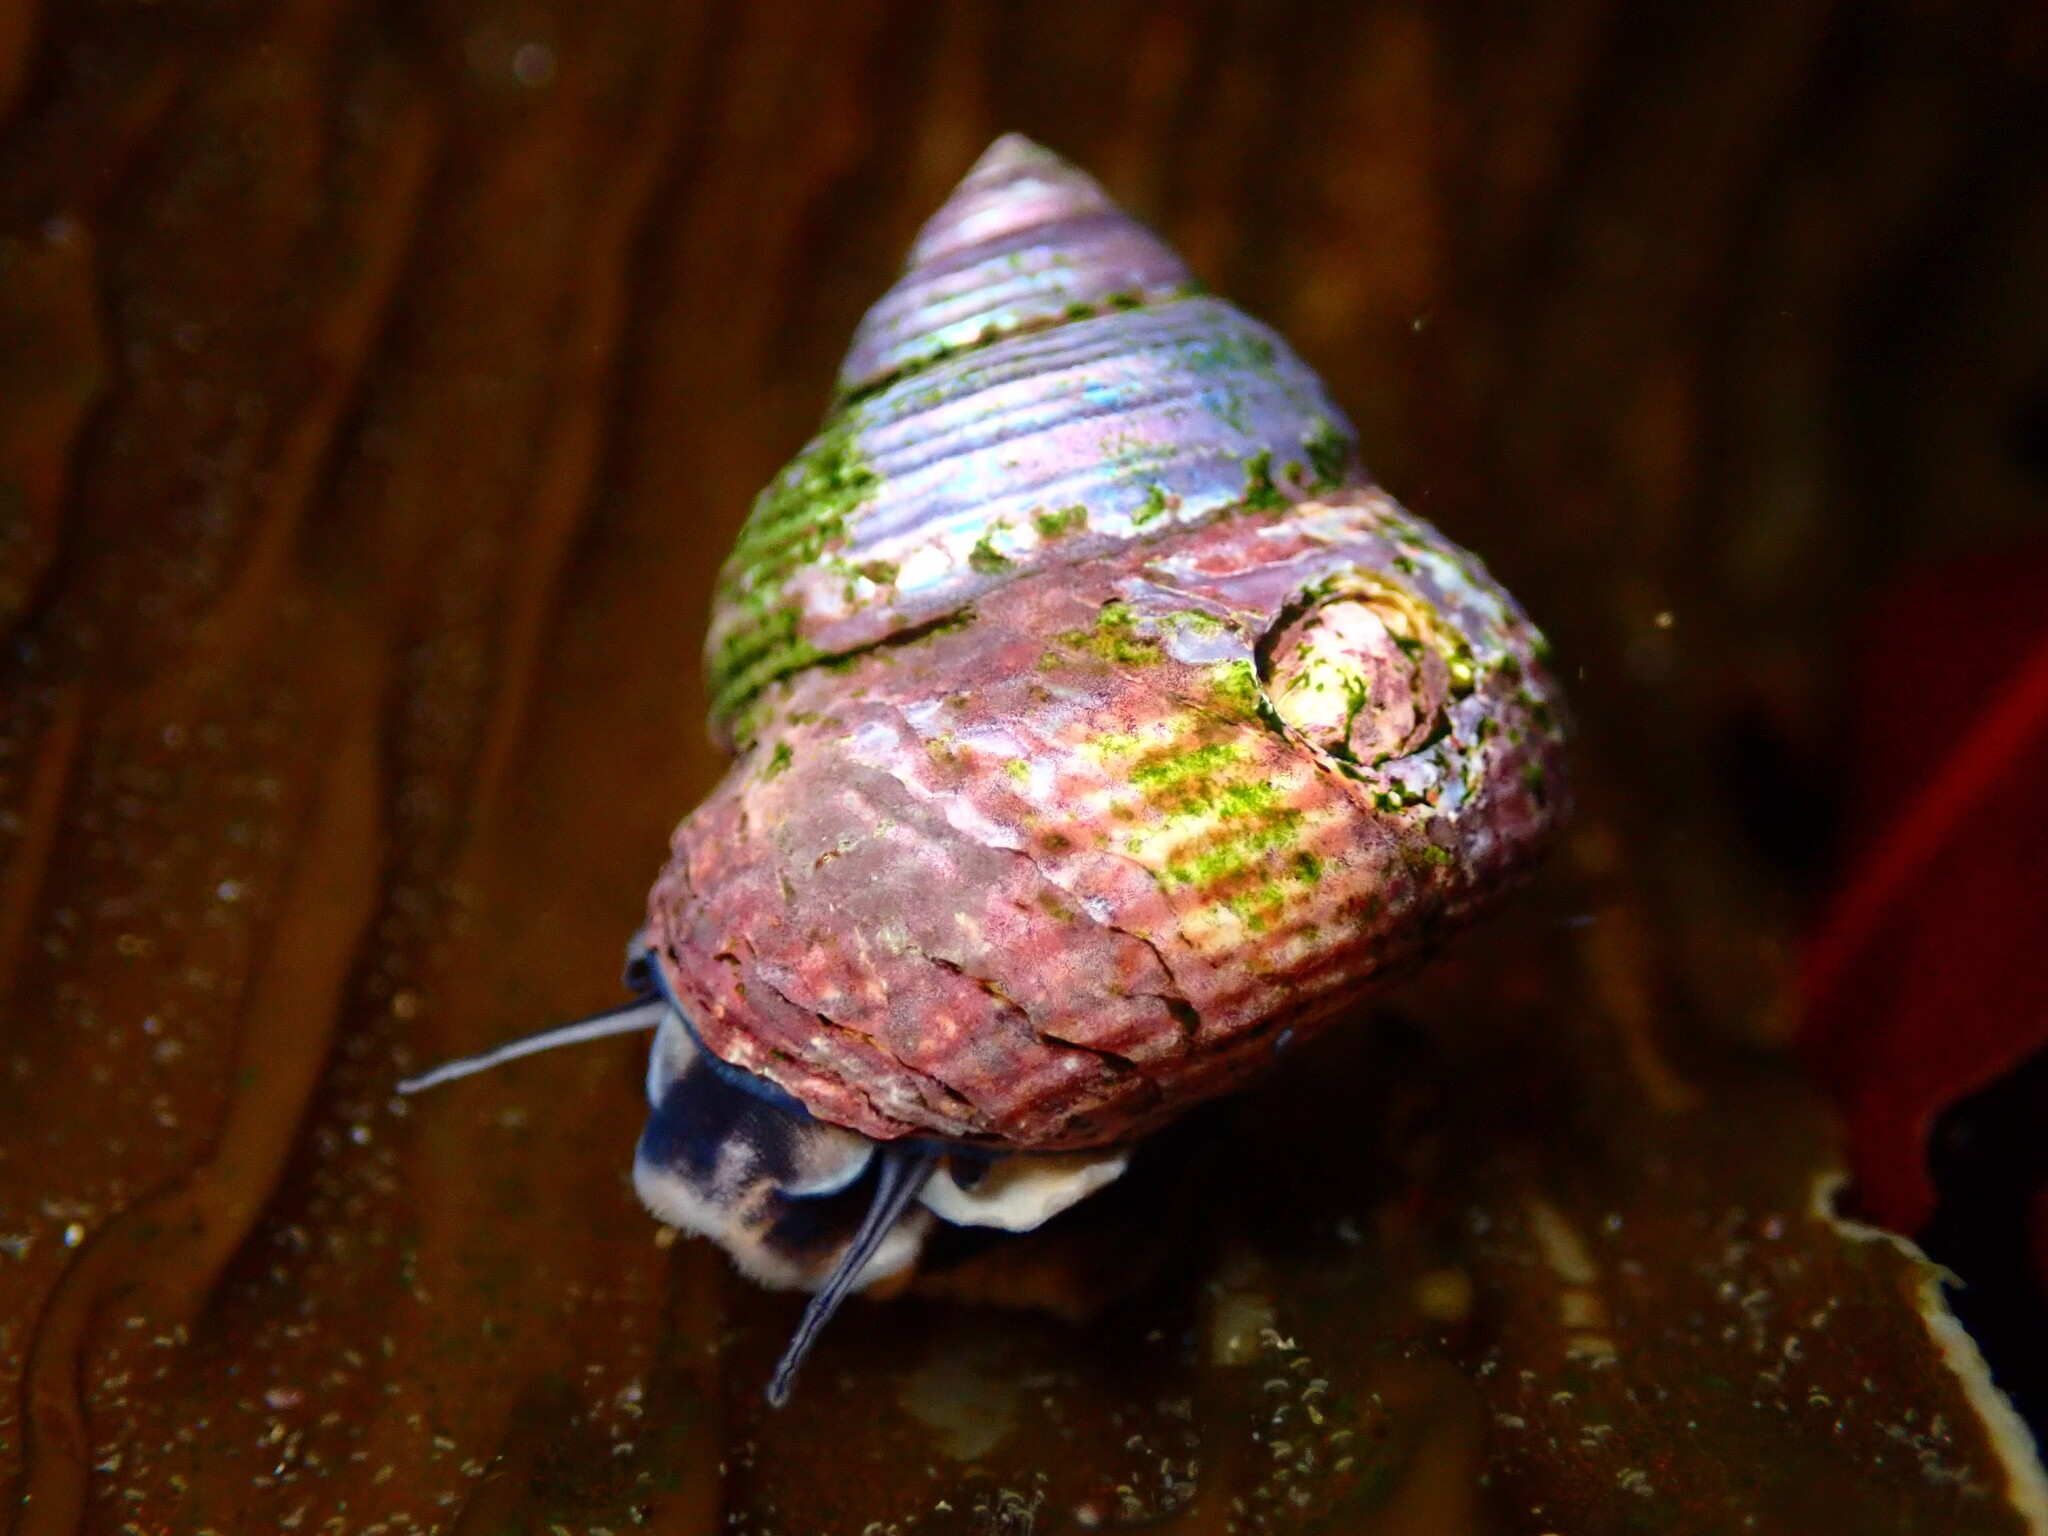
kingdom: Animalia
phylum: Mollusca
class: Gastropoda
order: Trochida
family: Calliostomatidae
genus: Calliostoma
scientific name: Calliostoma ligatum
